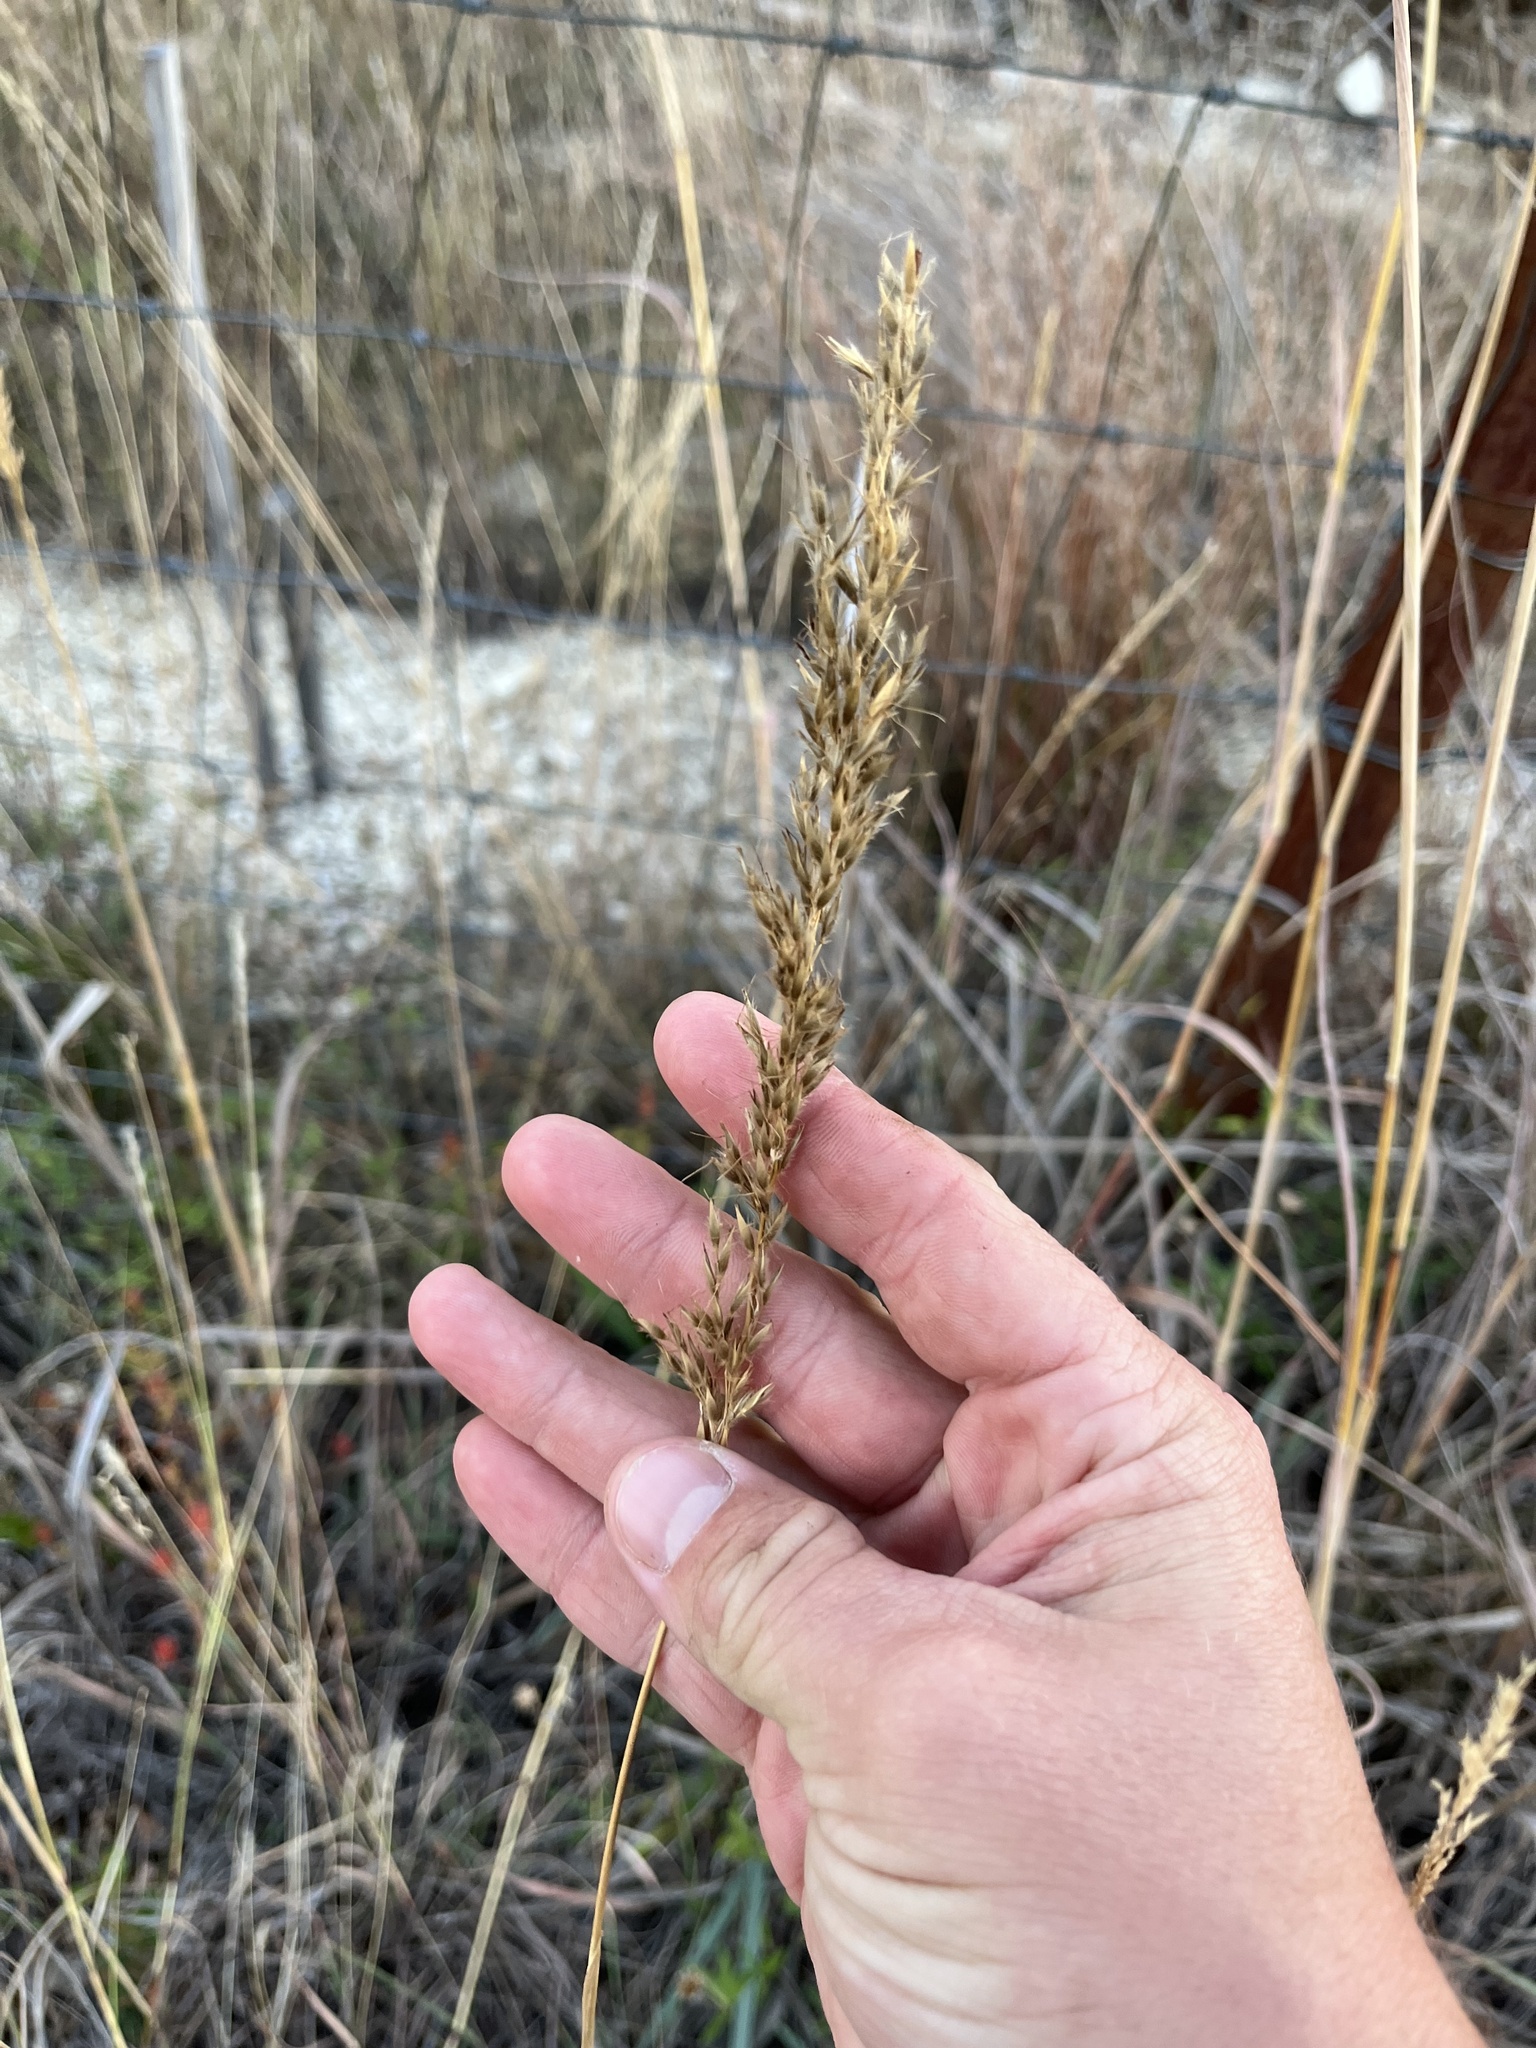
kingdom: Plantae
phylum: Tracheophyta
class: Liliopsida
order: Poales
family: Poaceae
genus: Sorghastrum
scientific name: Sorghastrum nutans
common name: Indian grass
